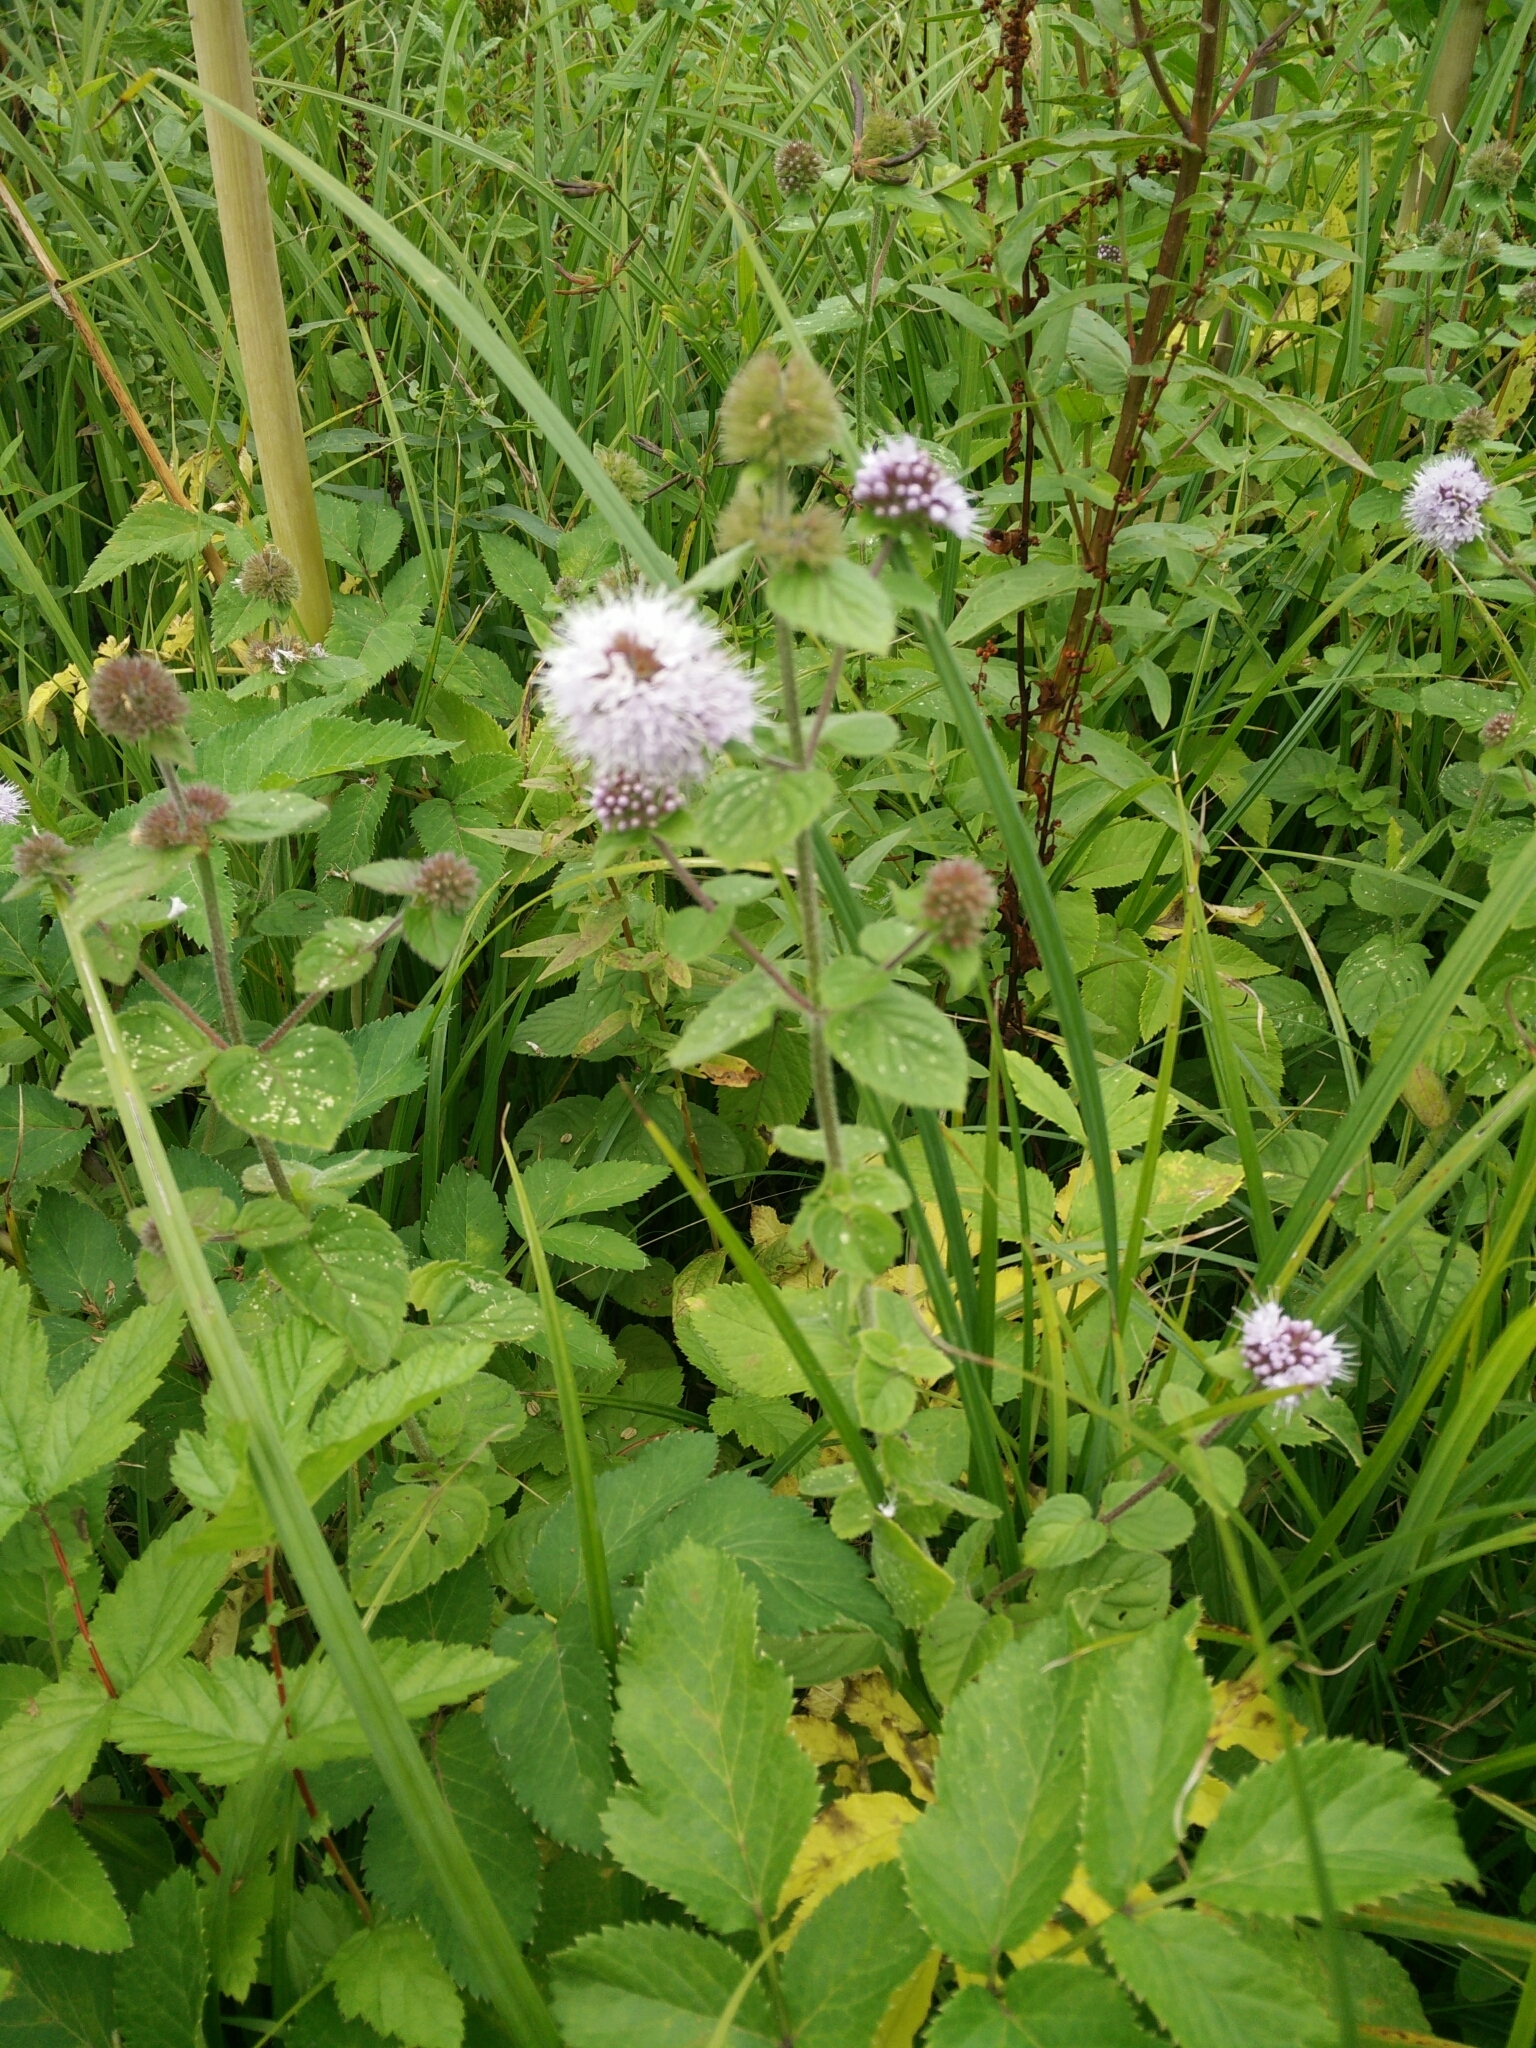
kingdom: Plantae
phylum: Tracheophyta
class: Magnoliopsida
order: Lamiales
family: Lamiaceae
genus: Mentha
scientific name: Mentha aquatica
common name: Water mint
